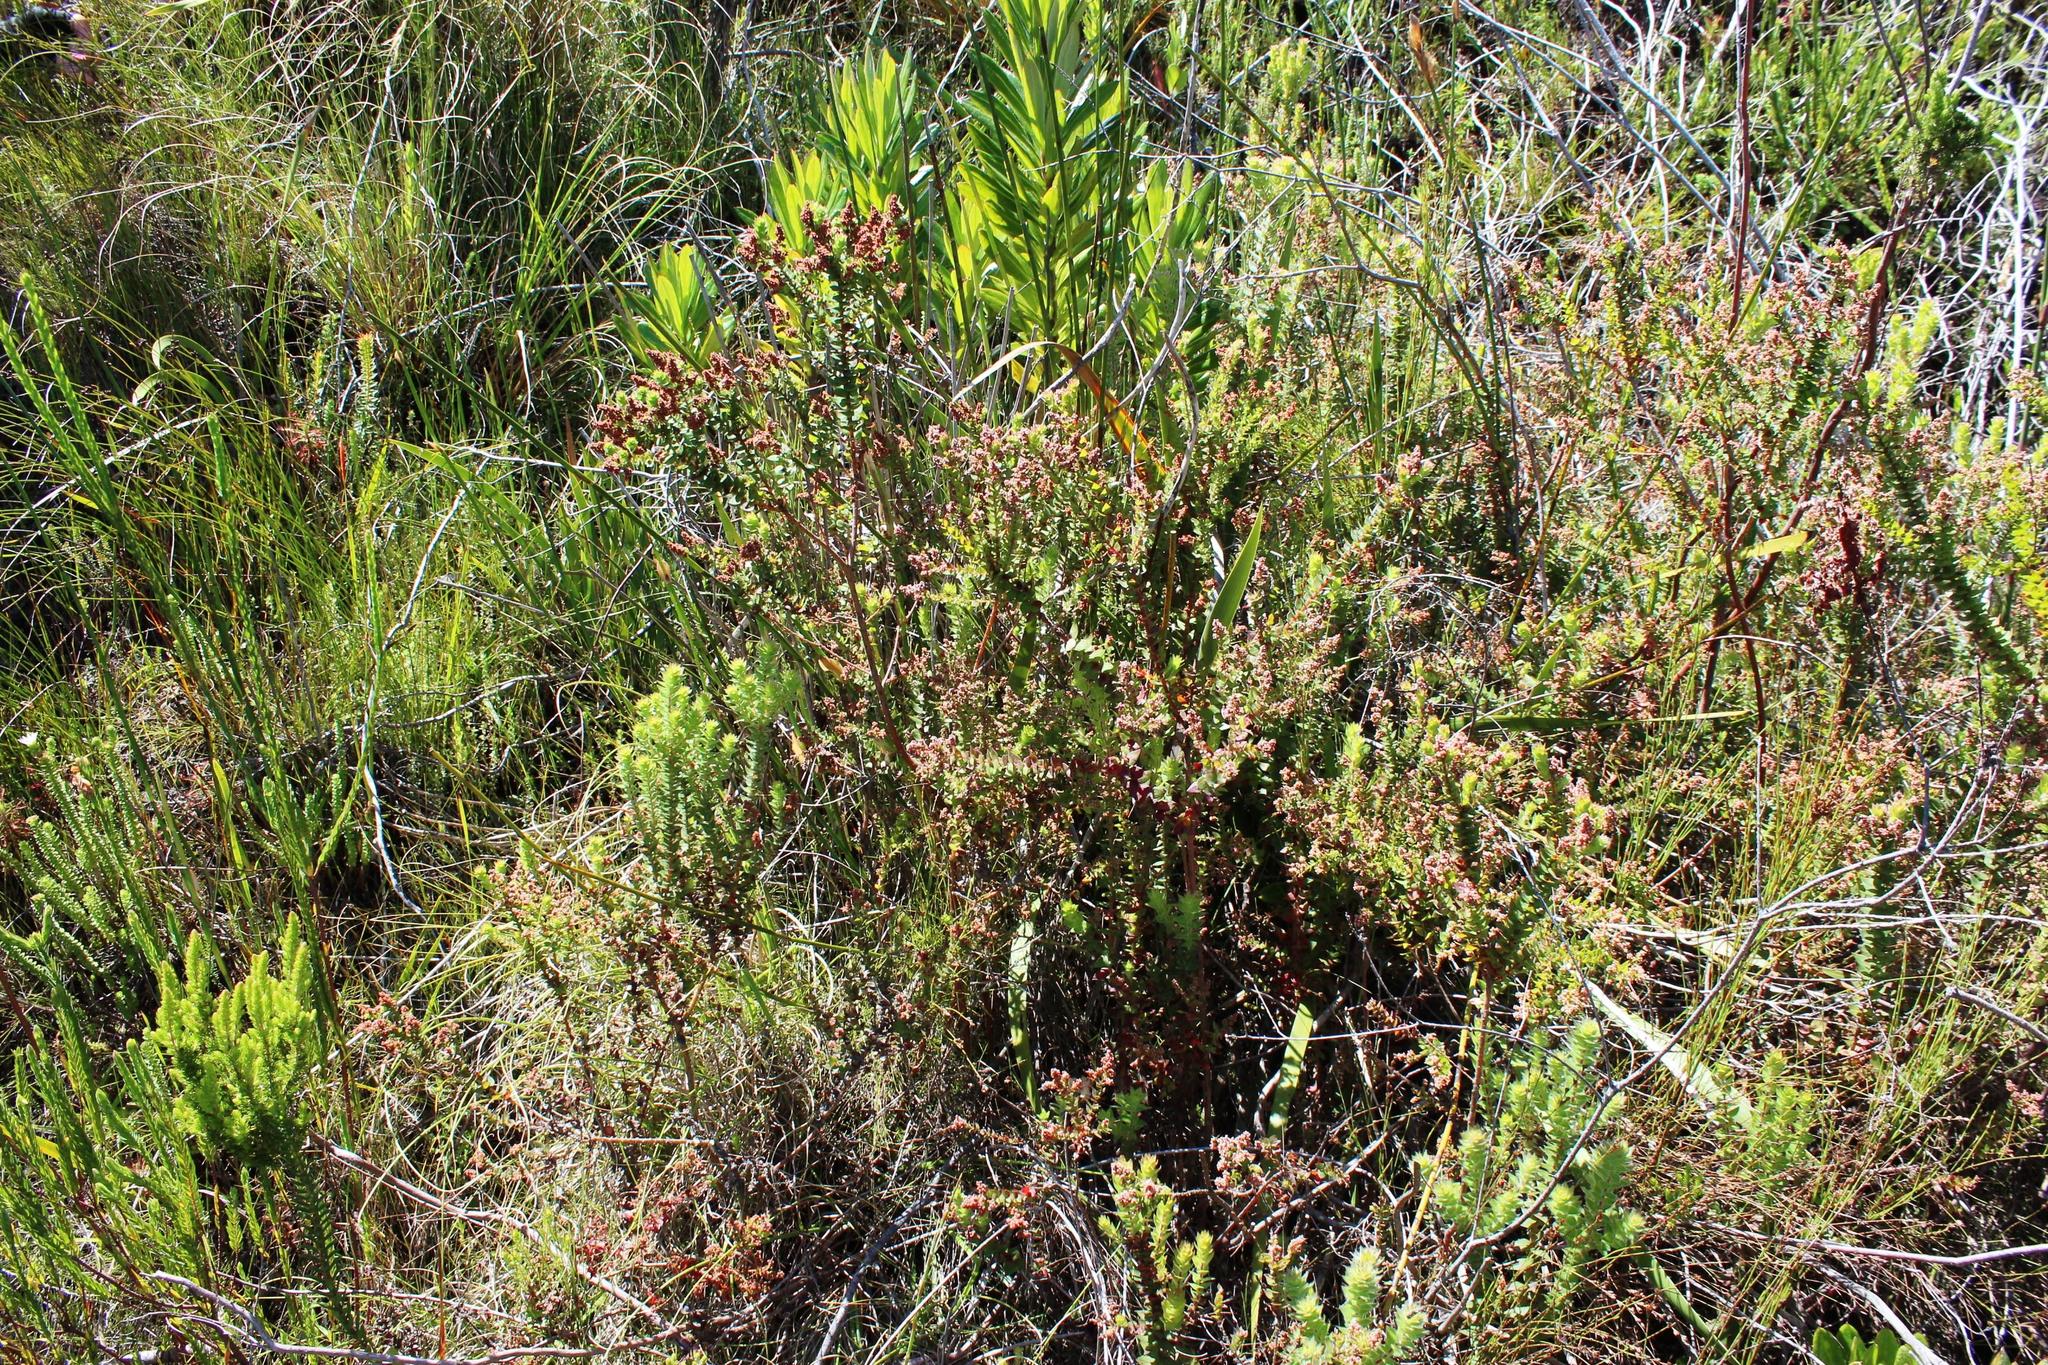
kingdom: Plantae
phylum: Tracheophyta
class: Magnoliopsida
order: Bruniales
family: Bruniaceae
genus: Brunia
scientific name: Brunia cordata
